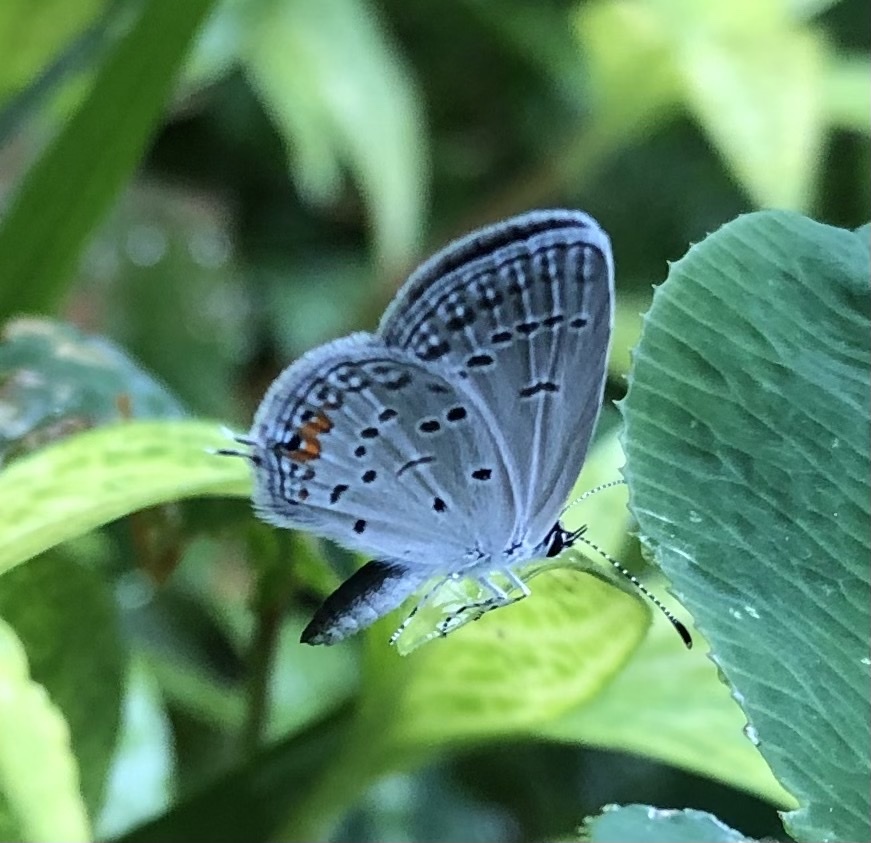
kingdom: Animalia
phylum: Arthropoda
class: Insecta
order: Lepidoptera
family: Lycaenidae
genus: Elkalyce
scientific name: Elkalyce comyntas
